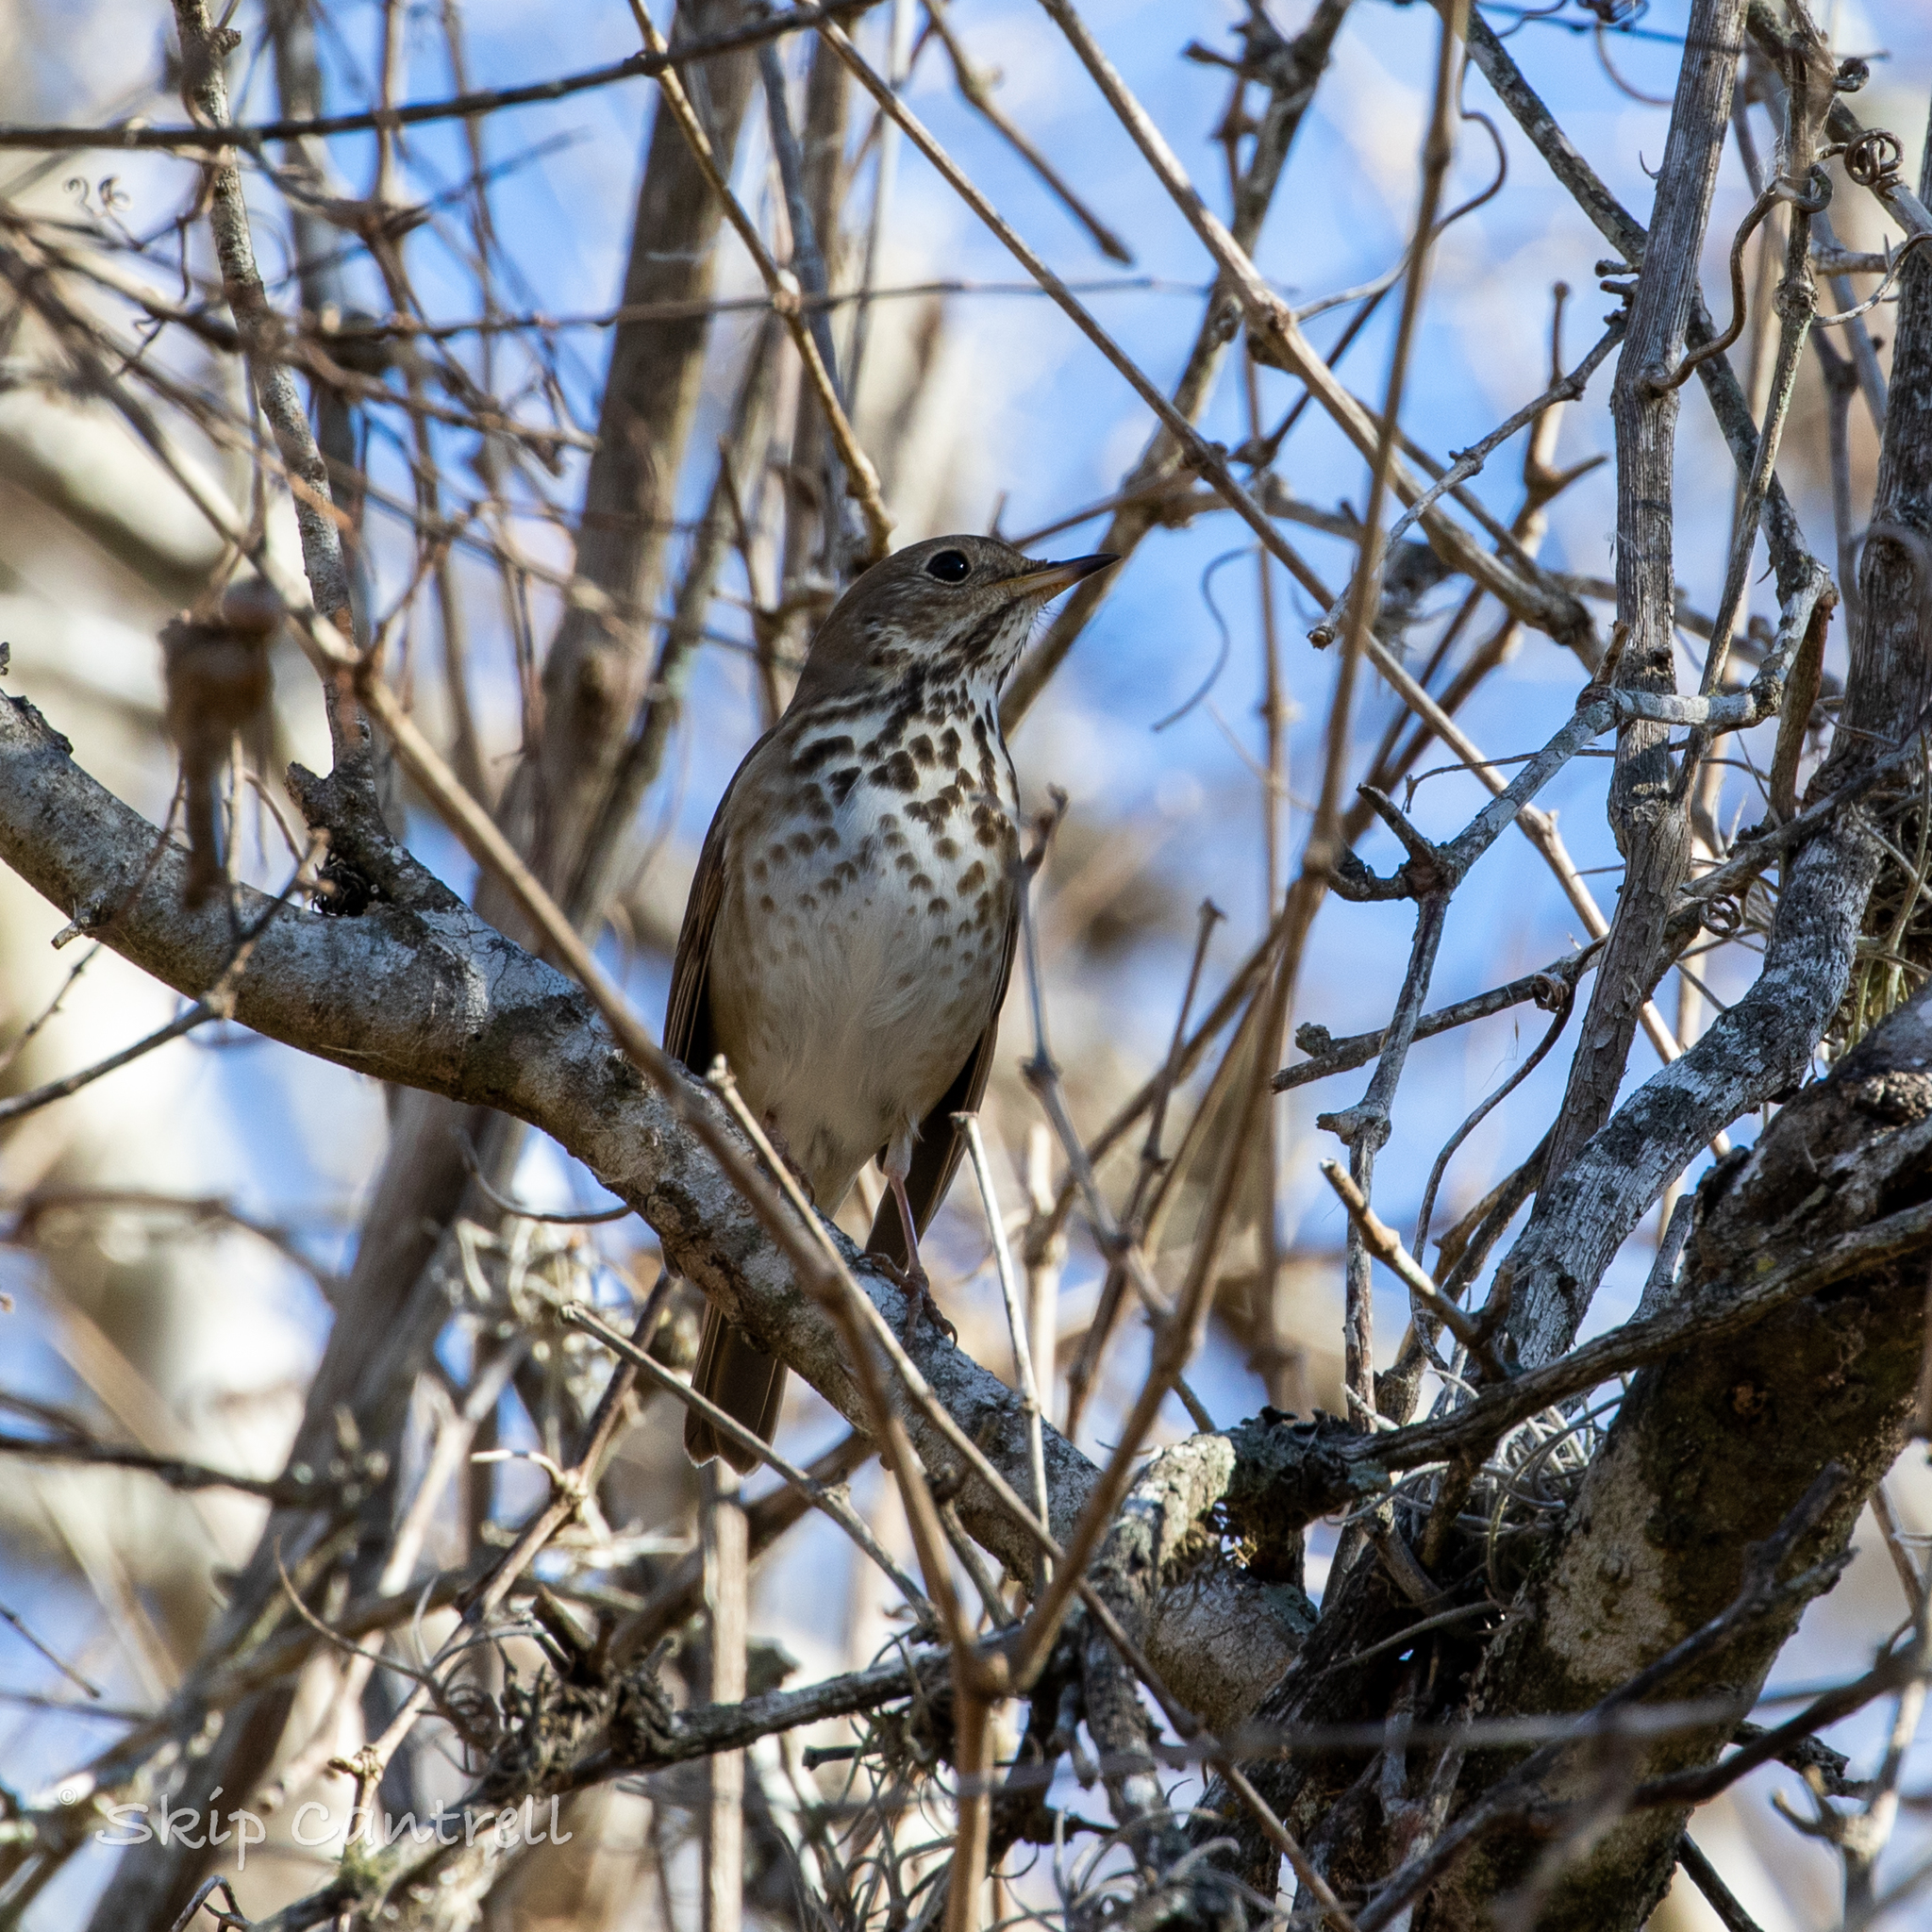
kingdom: Animalia
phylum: Chordata
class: Aves
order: Passeriformes
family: Turdidae
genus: Catharus
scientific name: Catharus guttatus
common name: Hermit thrush
